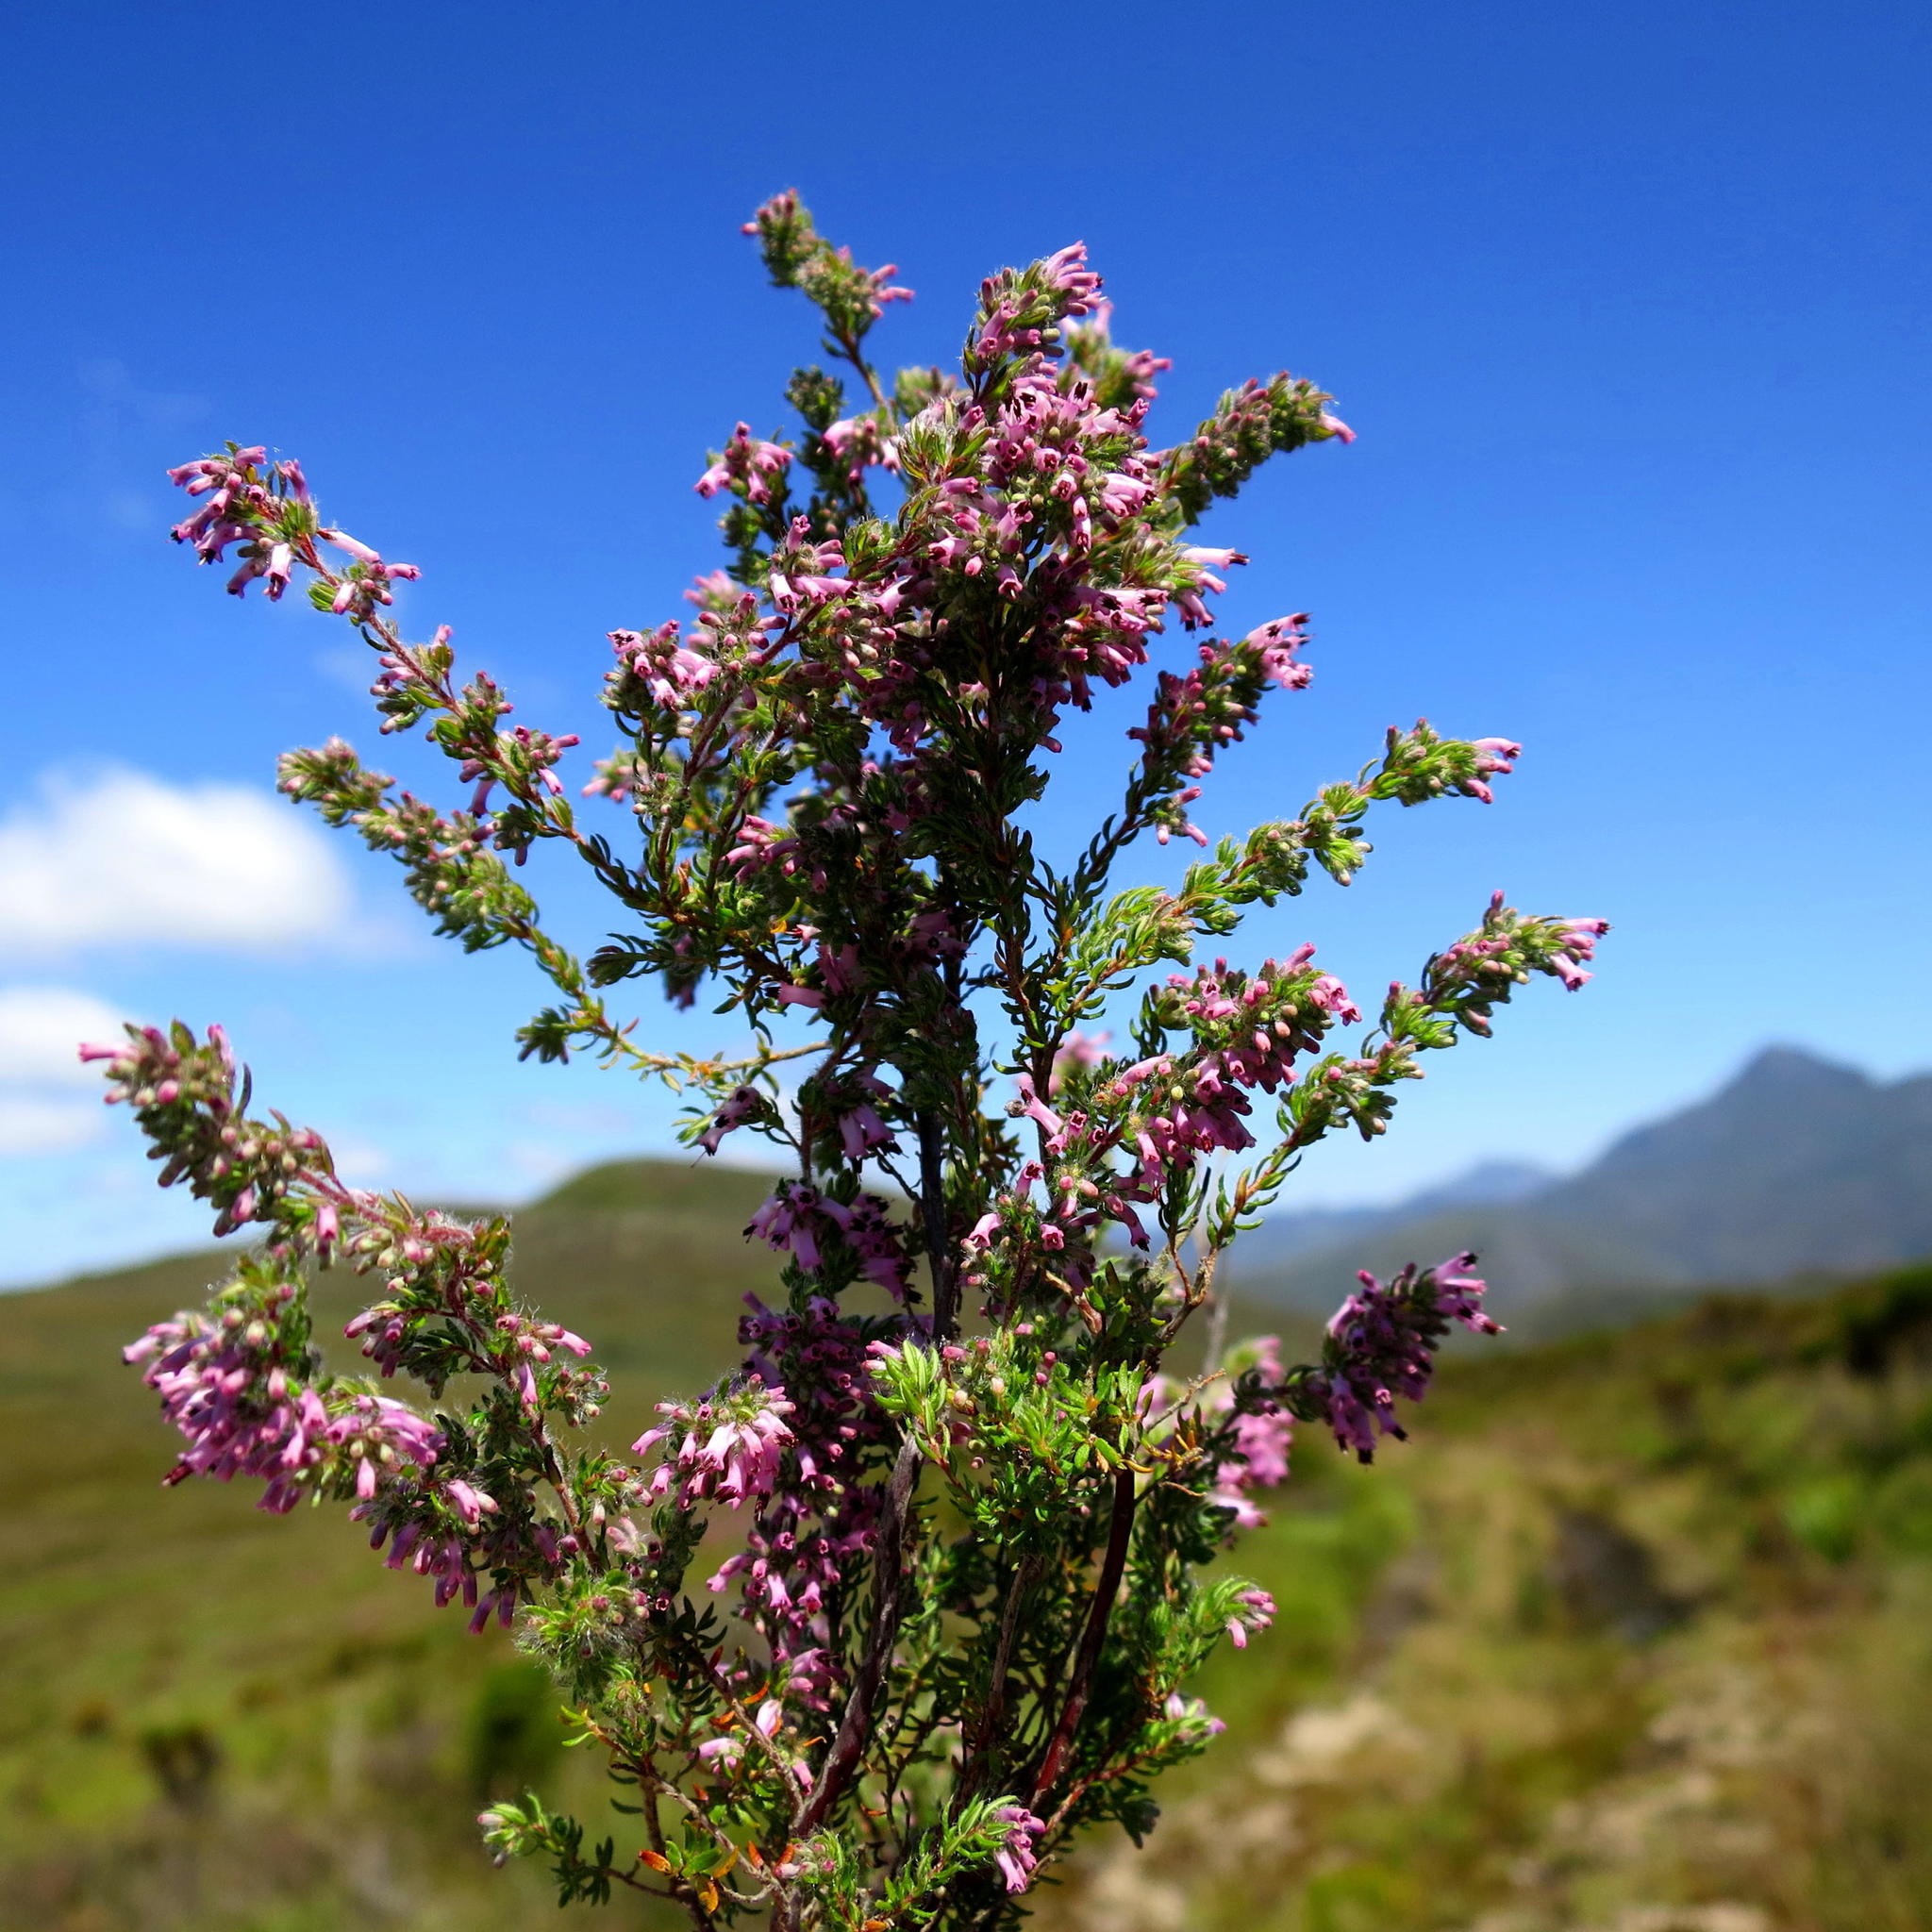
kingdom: Plantae
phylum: Tracheophyta
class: Magnoliopsida
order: Ericales
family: Ericaceae
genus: Erica
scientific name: Erica longimontana
